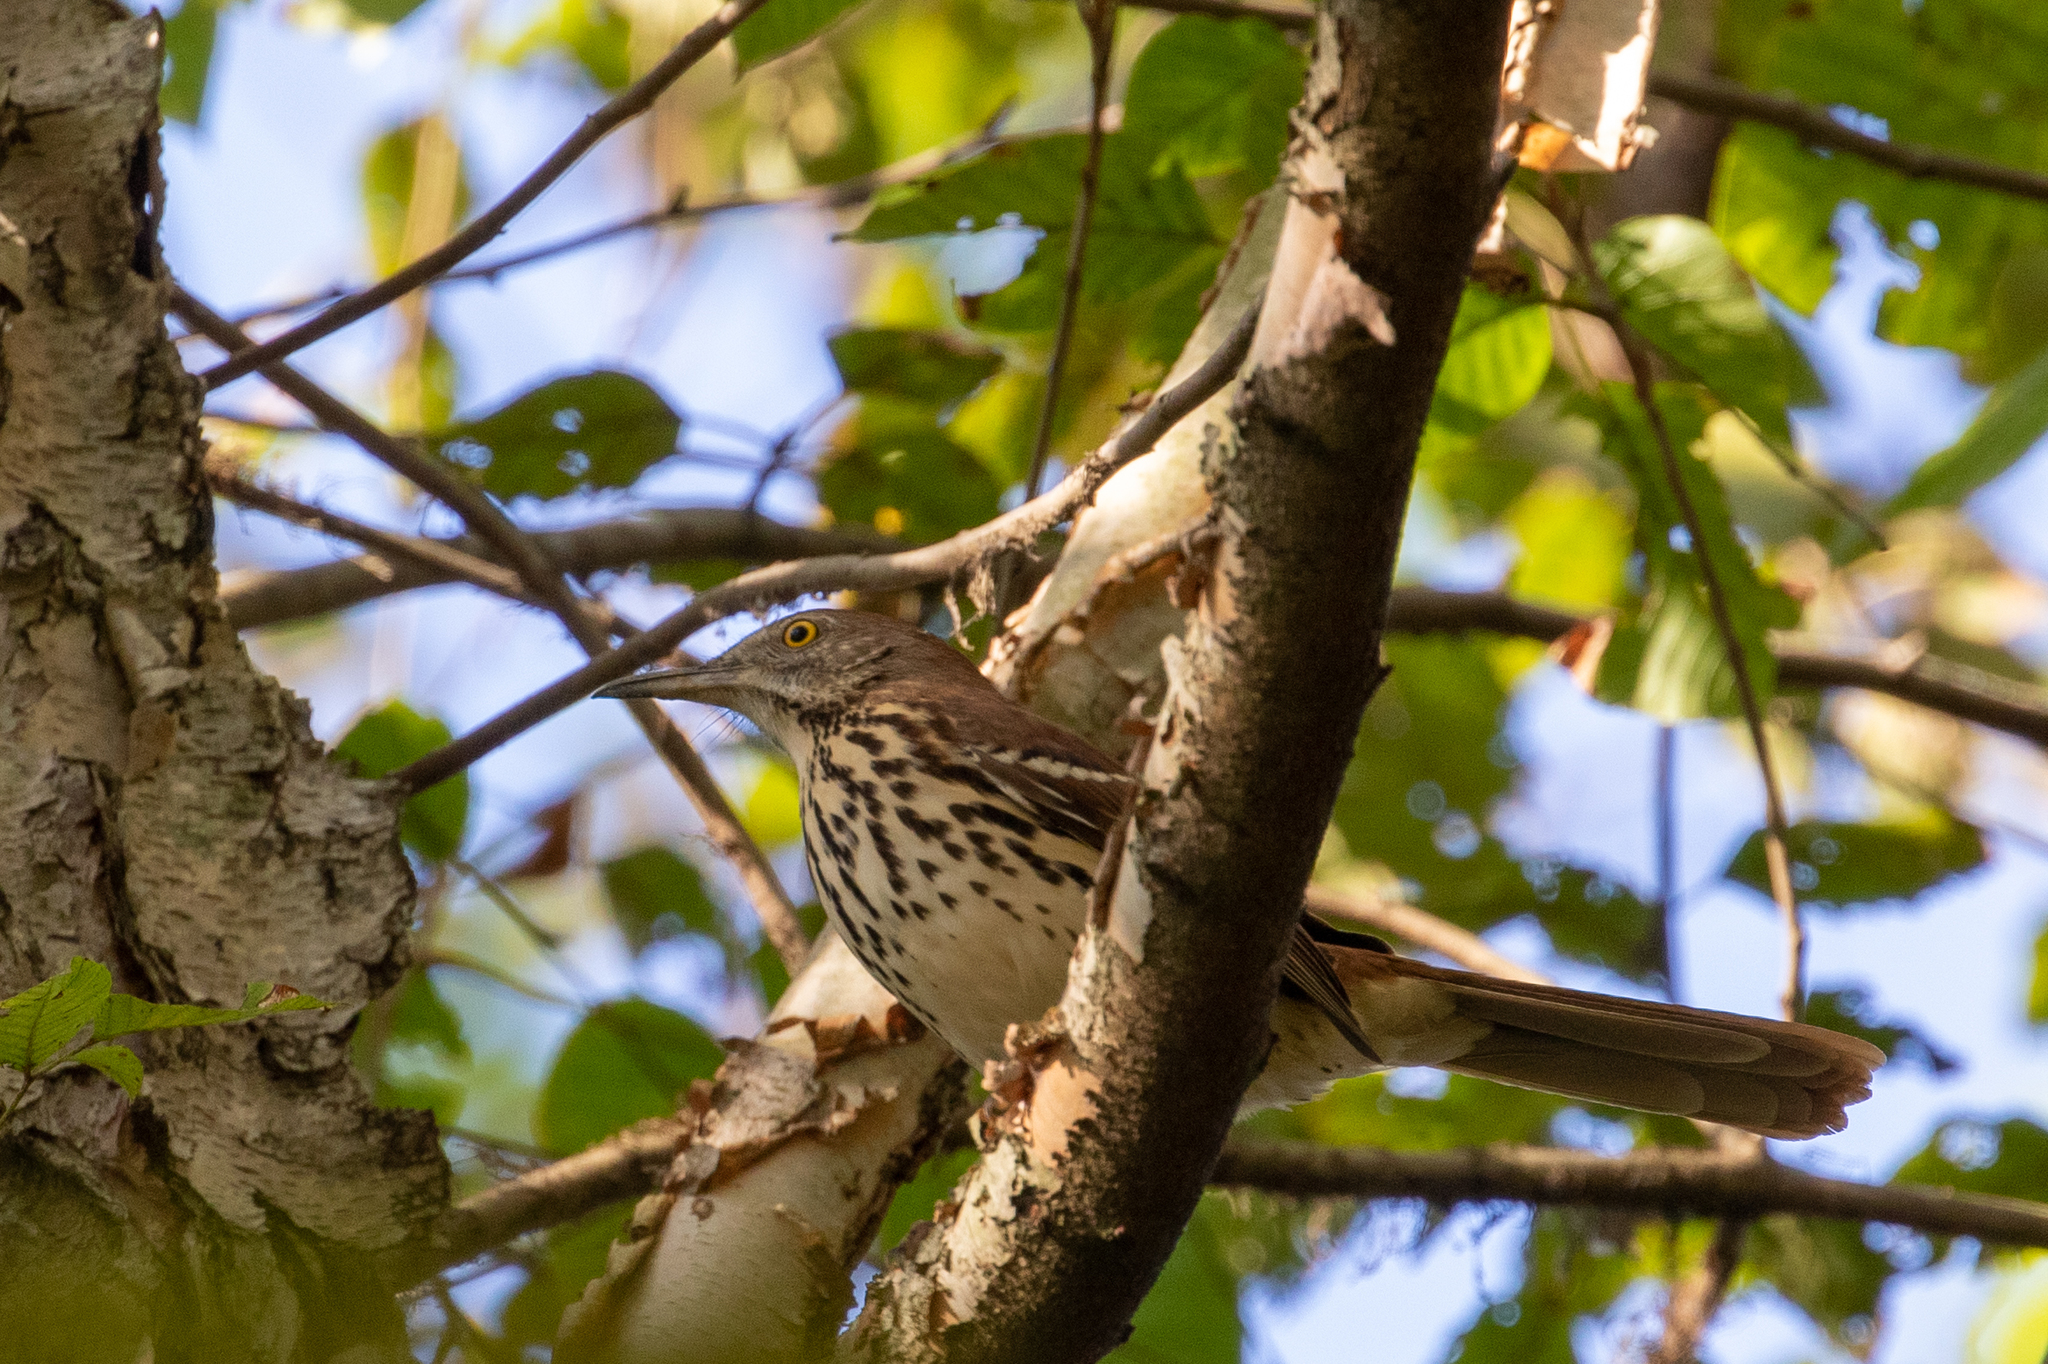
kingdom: Animalia
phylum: Chordata
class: Aves
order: Passeriformes
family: Mimidae
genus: Toxostoma
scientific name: Toxostoma rufum
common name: Brown thrasher
